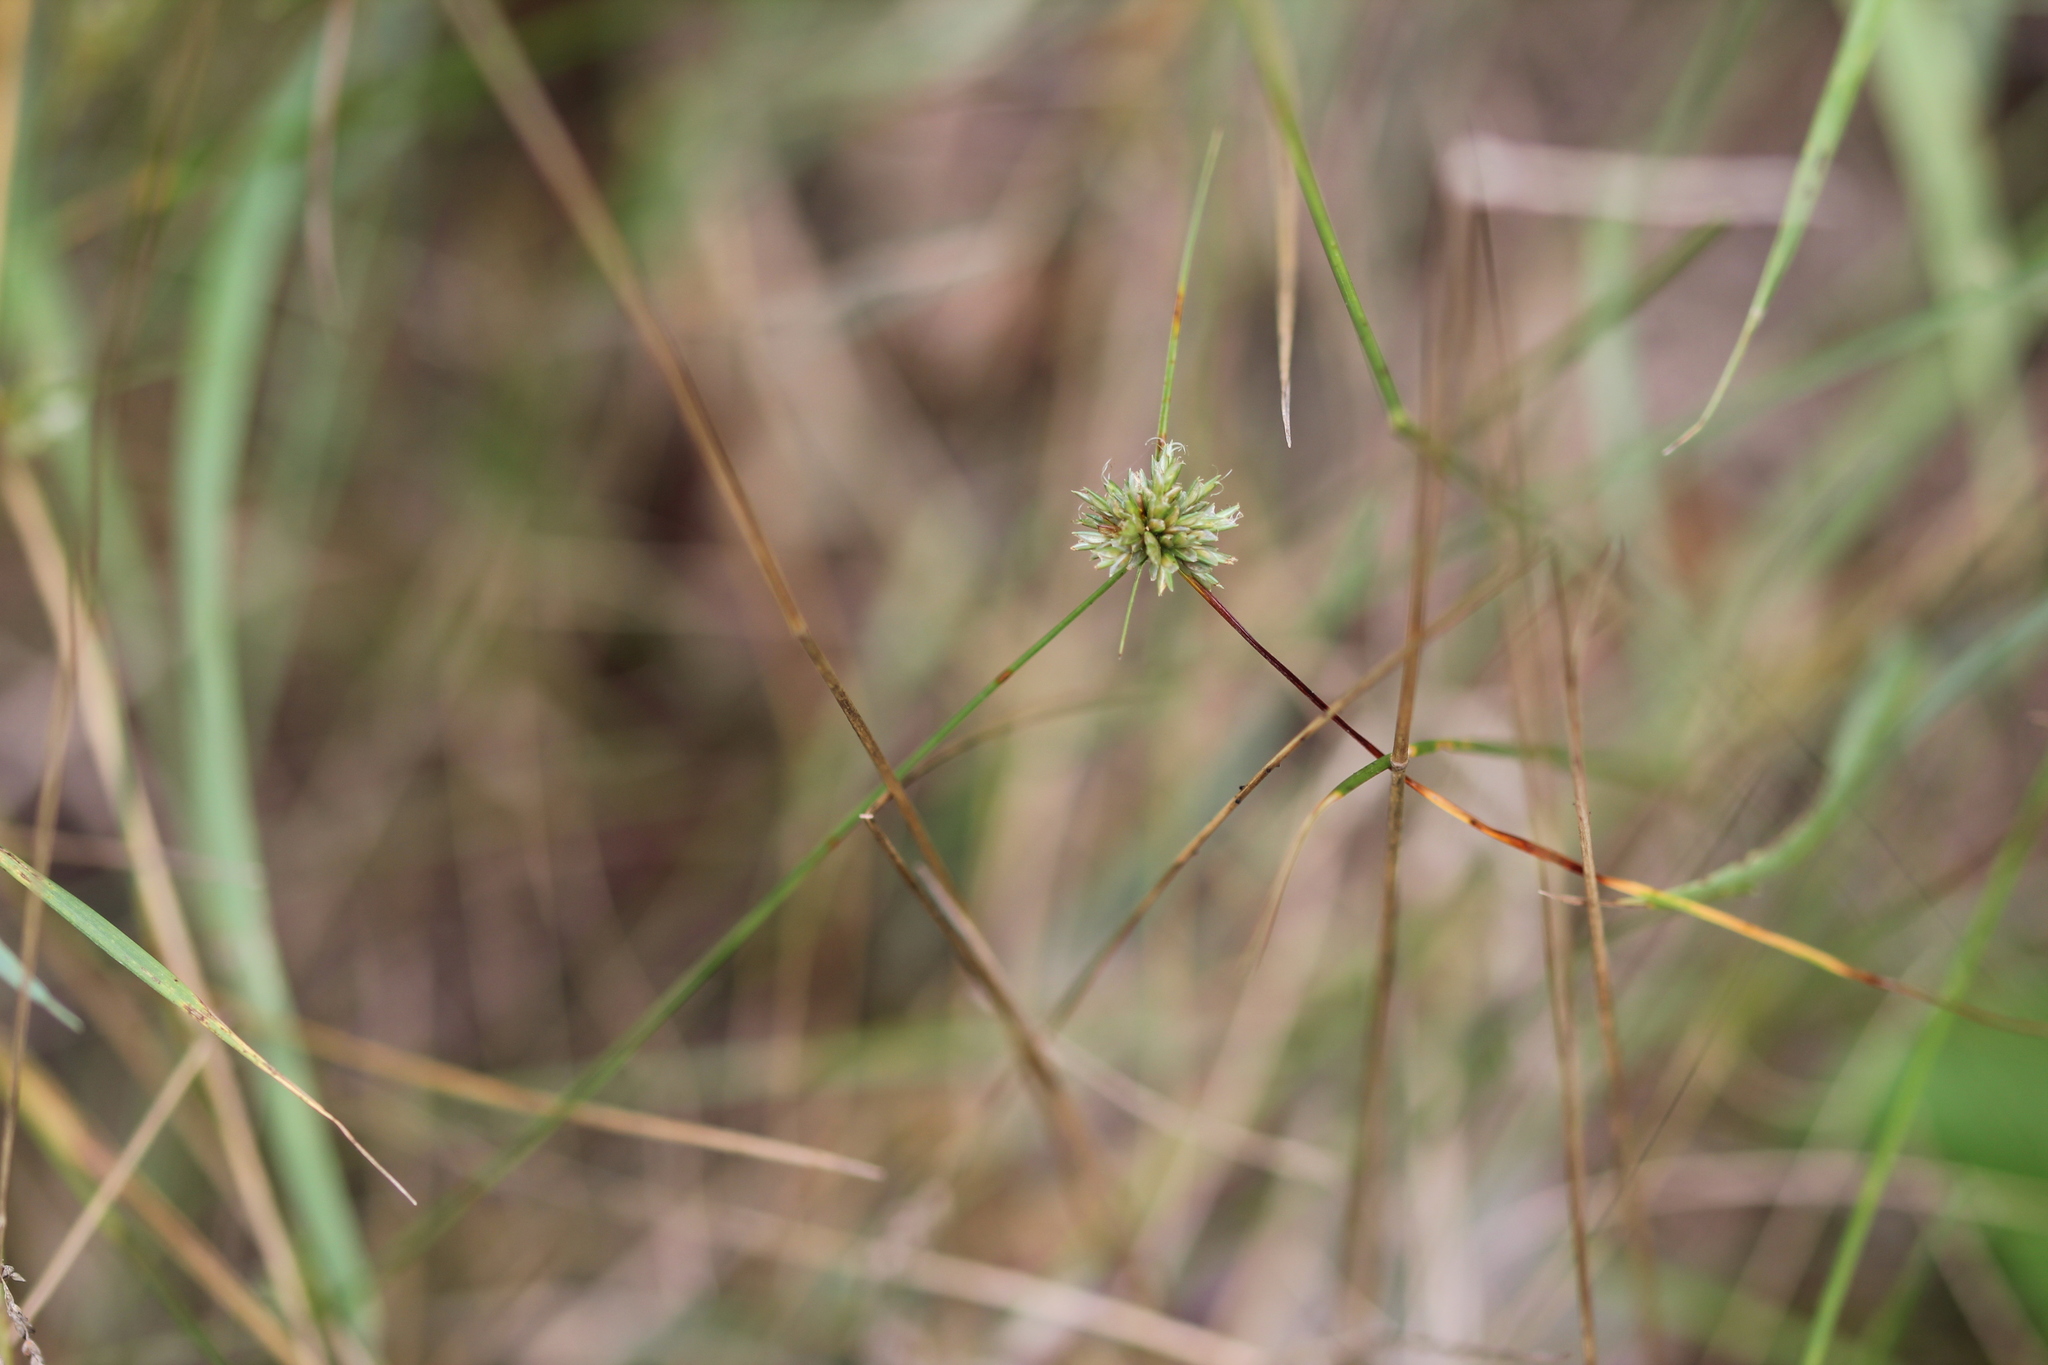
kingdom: Plantae
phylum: Tracheophyta
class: Liliopsida
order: Poales
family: Cyperaceae
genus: Cyperus
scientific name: Cyperus lupulinus
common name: Great plains flatsedge
